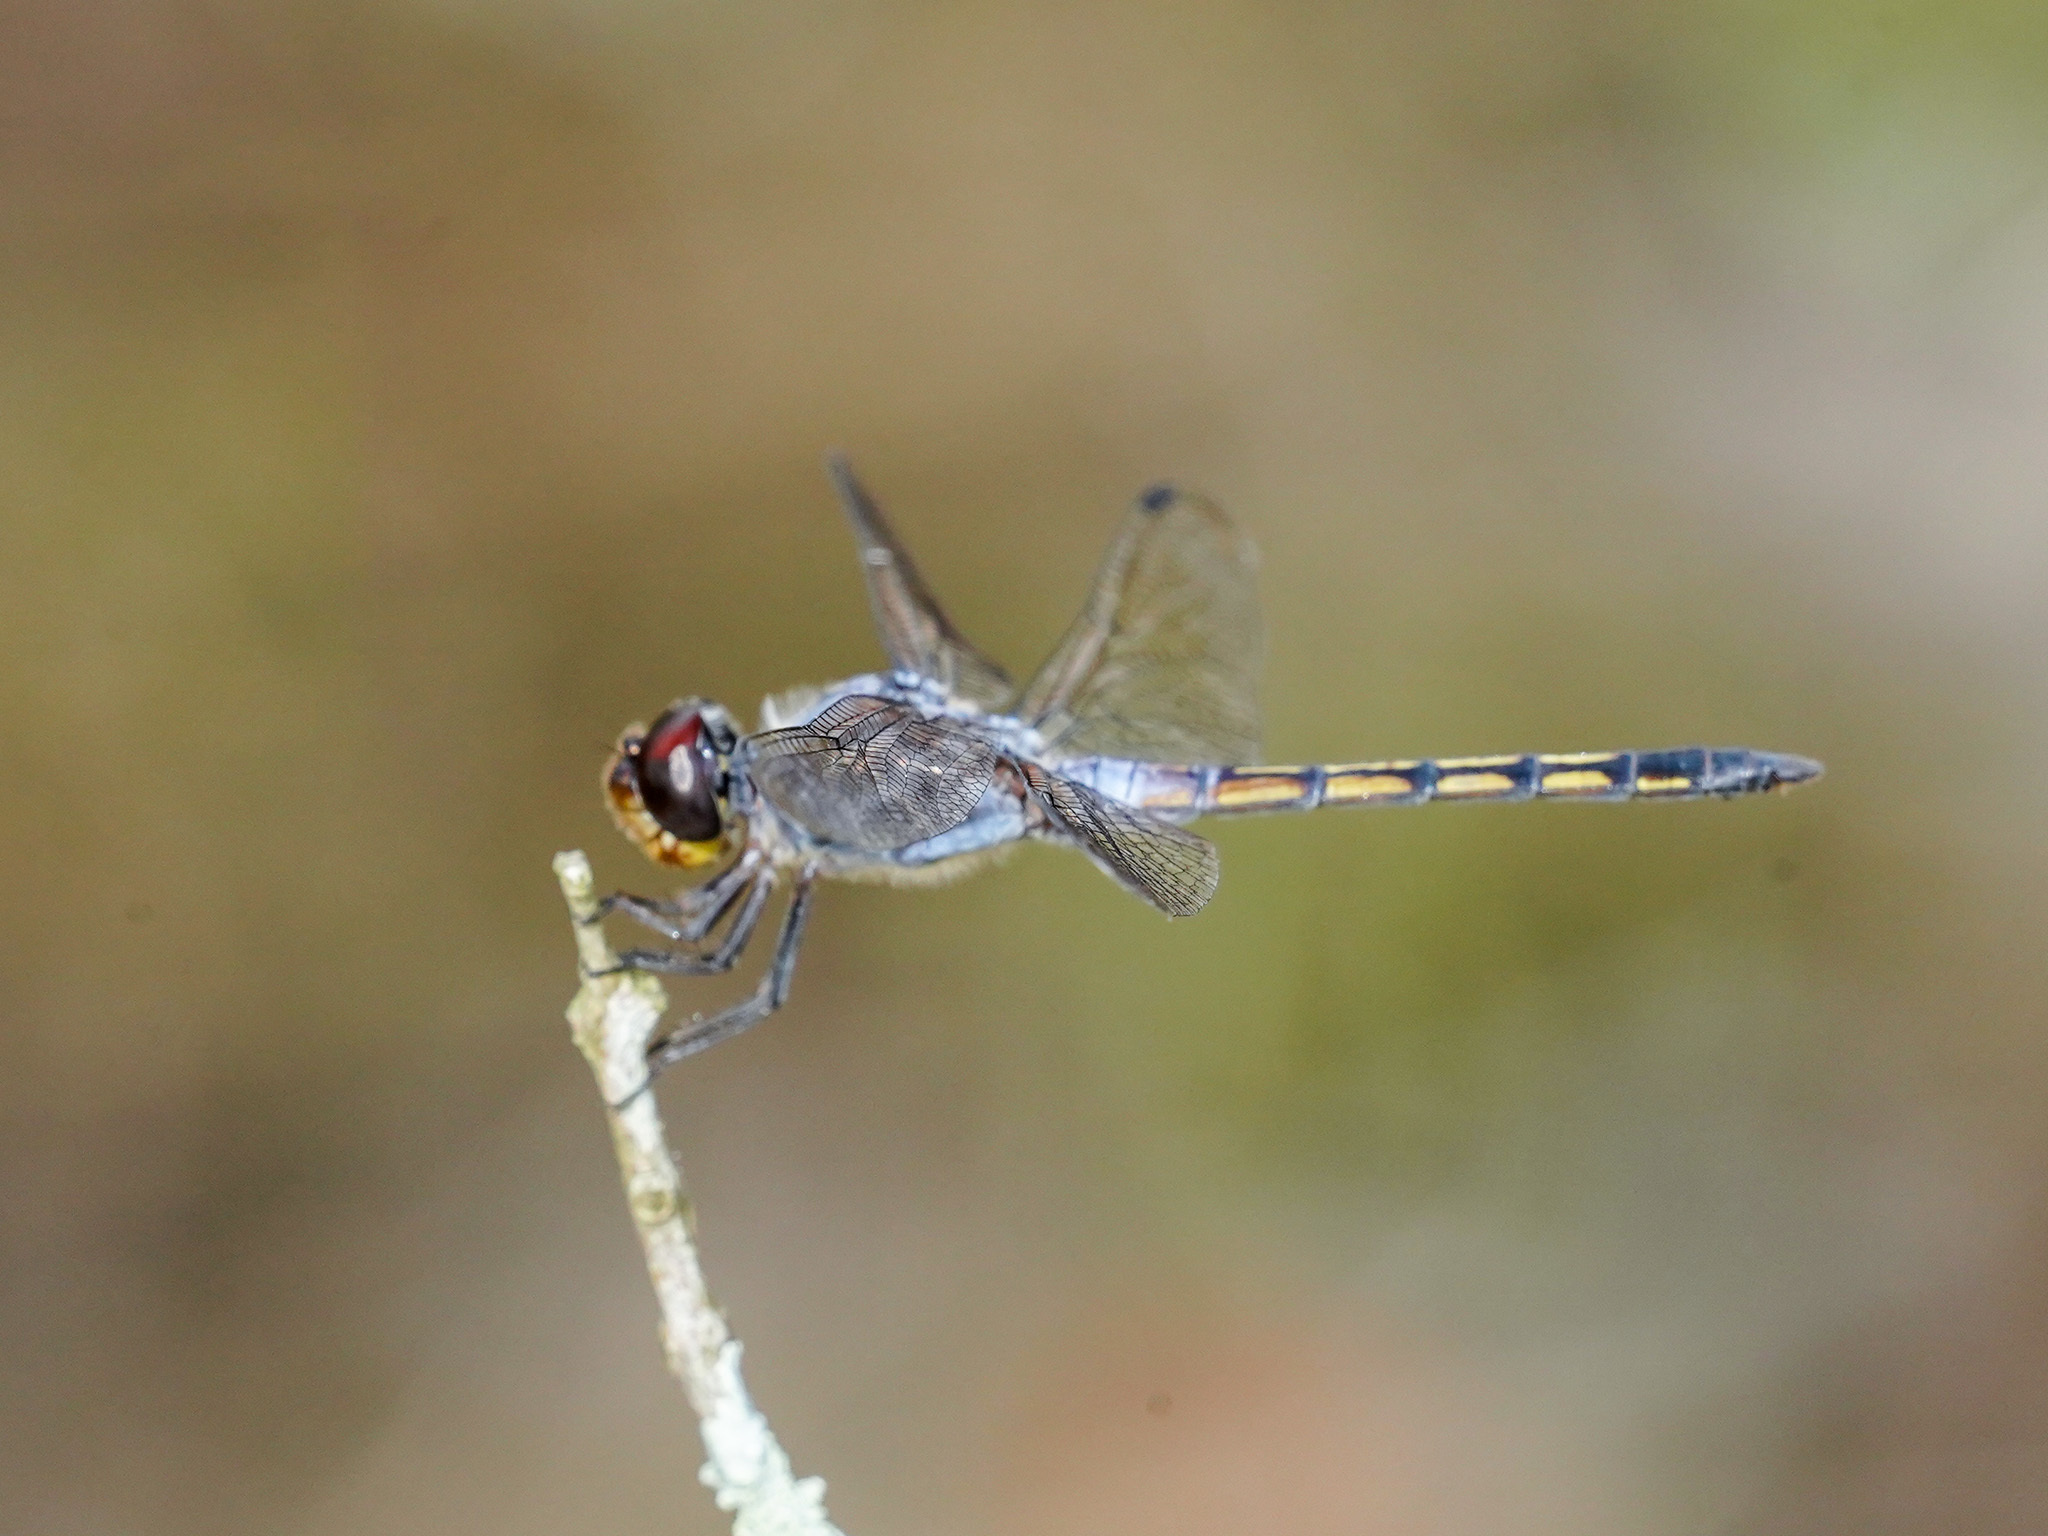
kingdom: Animalia
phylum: Arthropoda
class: Insecta
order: Odonata
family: Libellulidae
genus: Potamarcha
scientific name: Potamarcha congener
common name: Blue chaser
